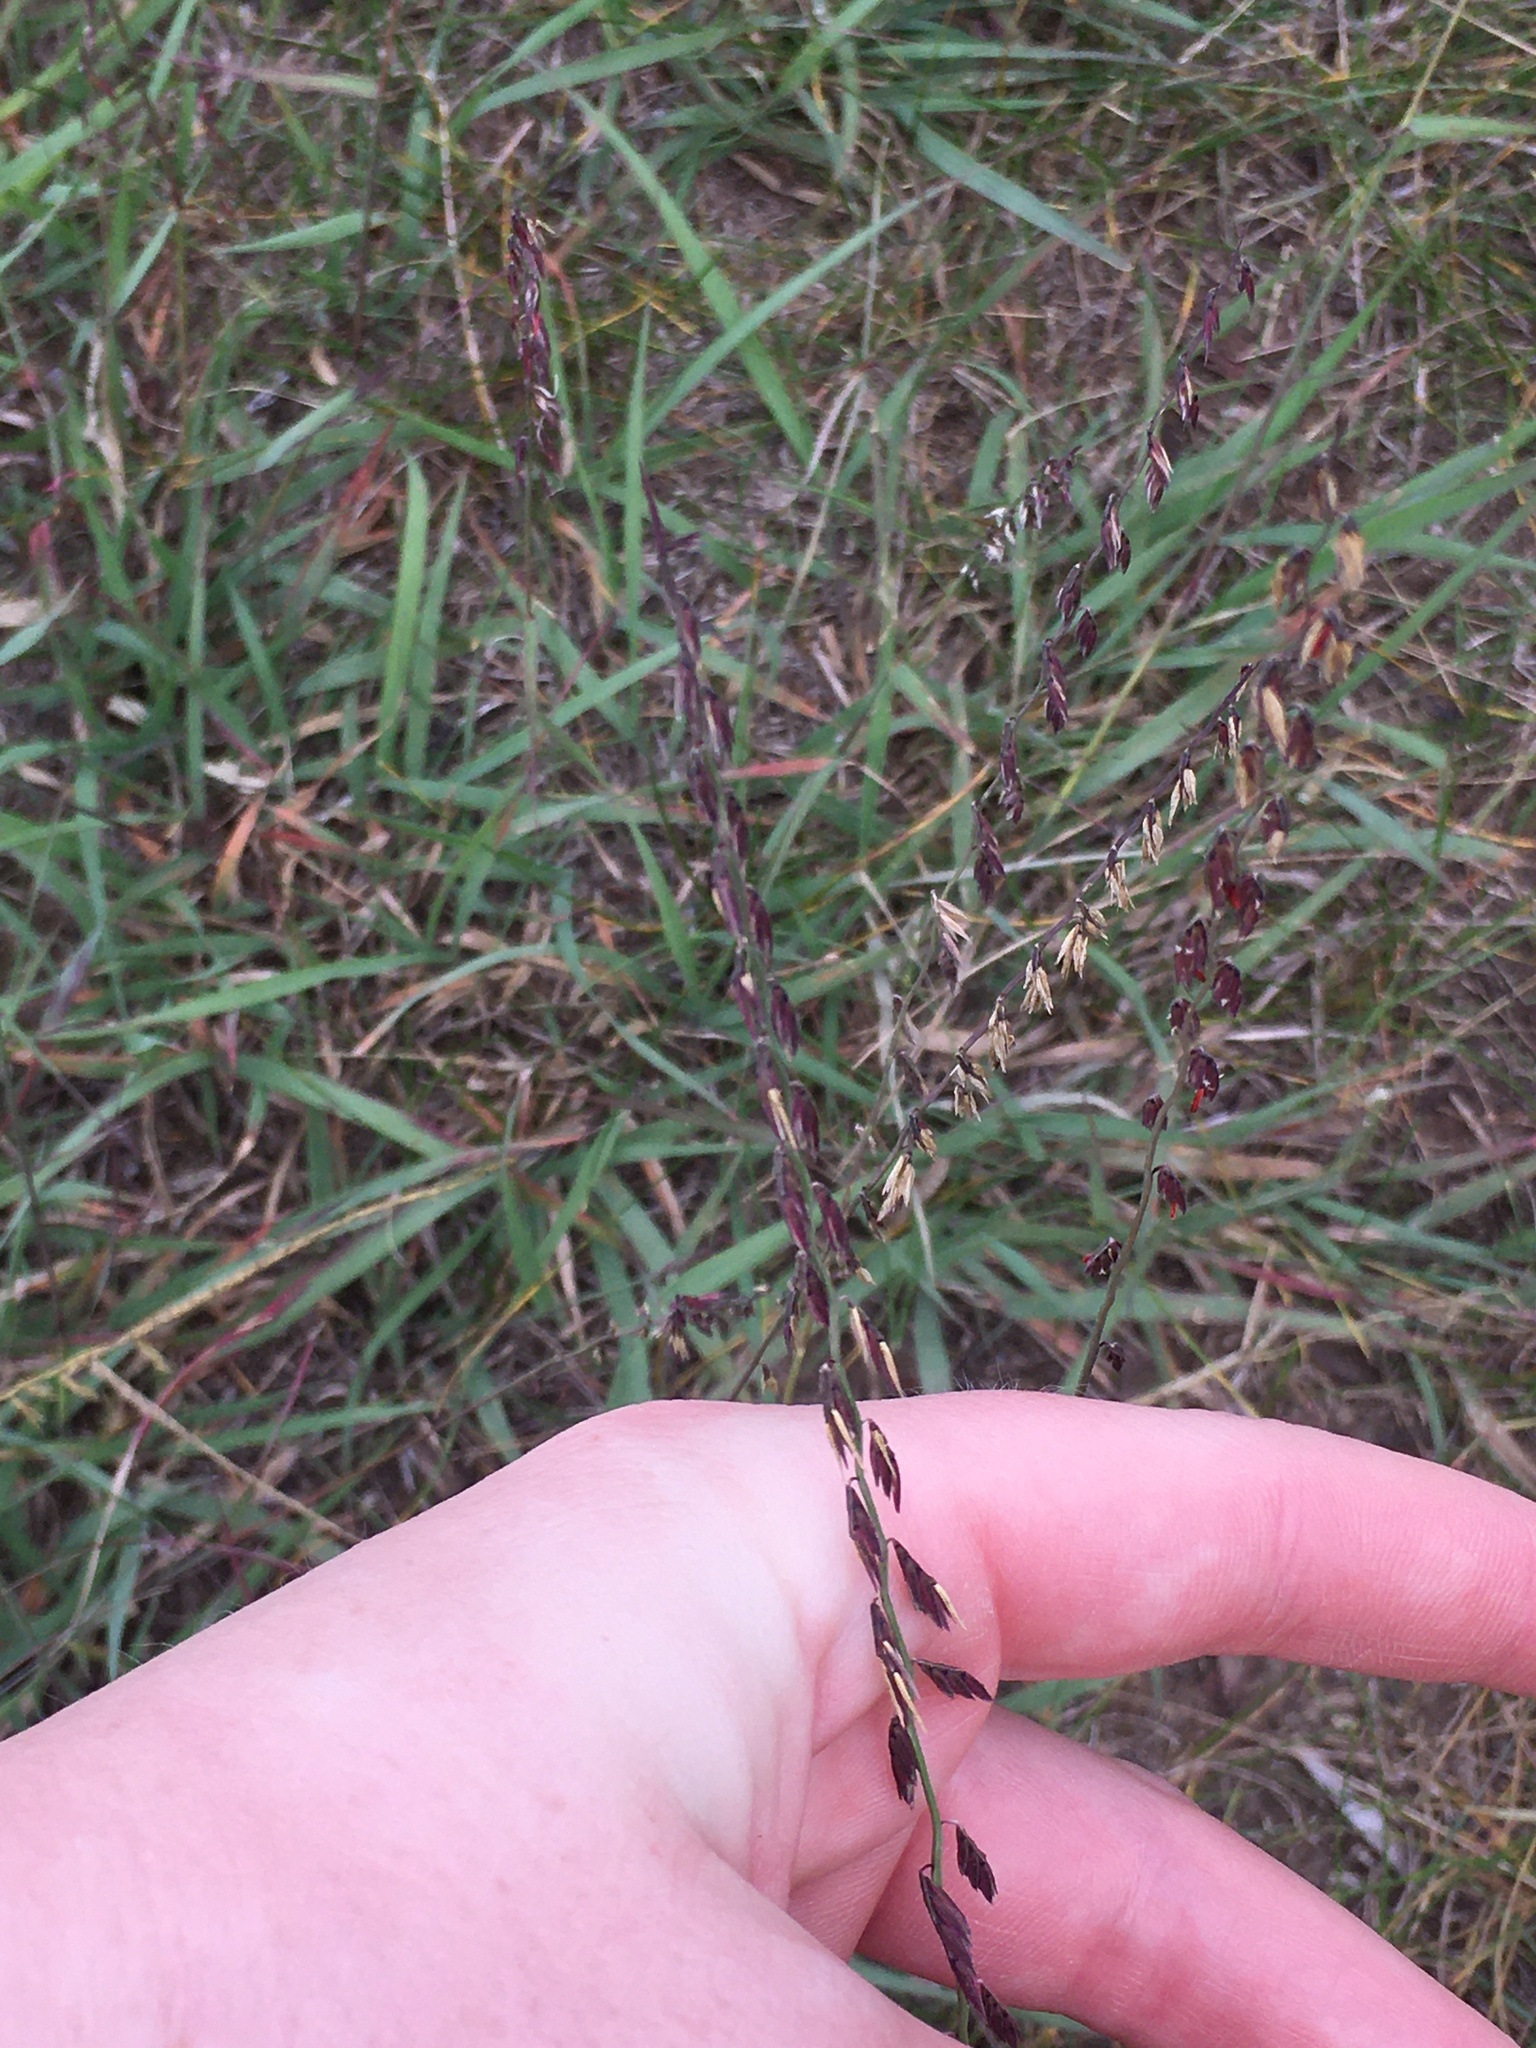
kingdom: Plantae
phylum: Tracheophyta
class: Liliopsida
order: Poales
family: Poaceae
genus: Bouteloua
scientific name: Bouteloua curtipendula
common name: Side-oats grama
